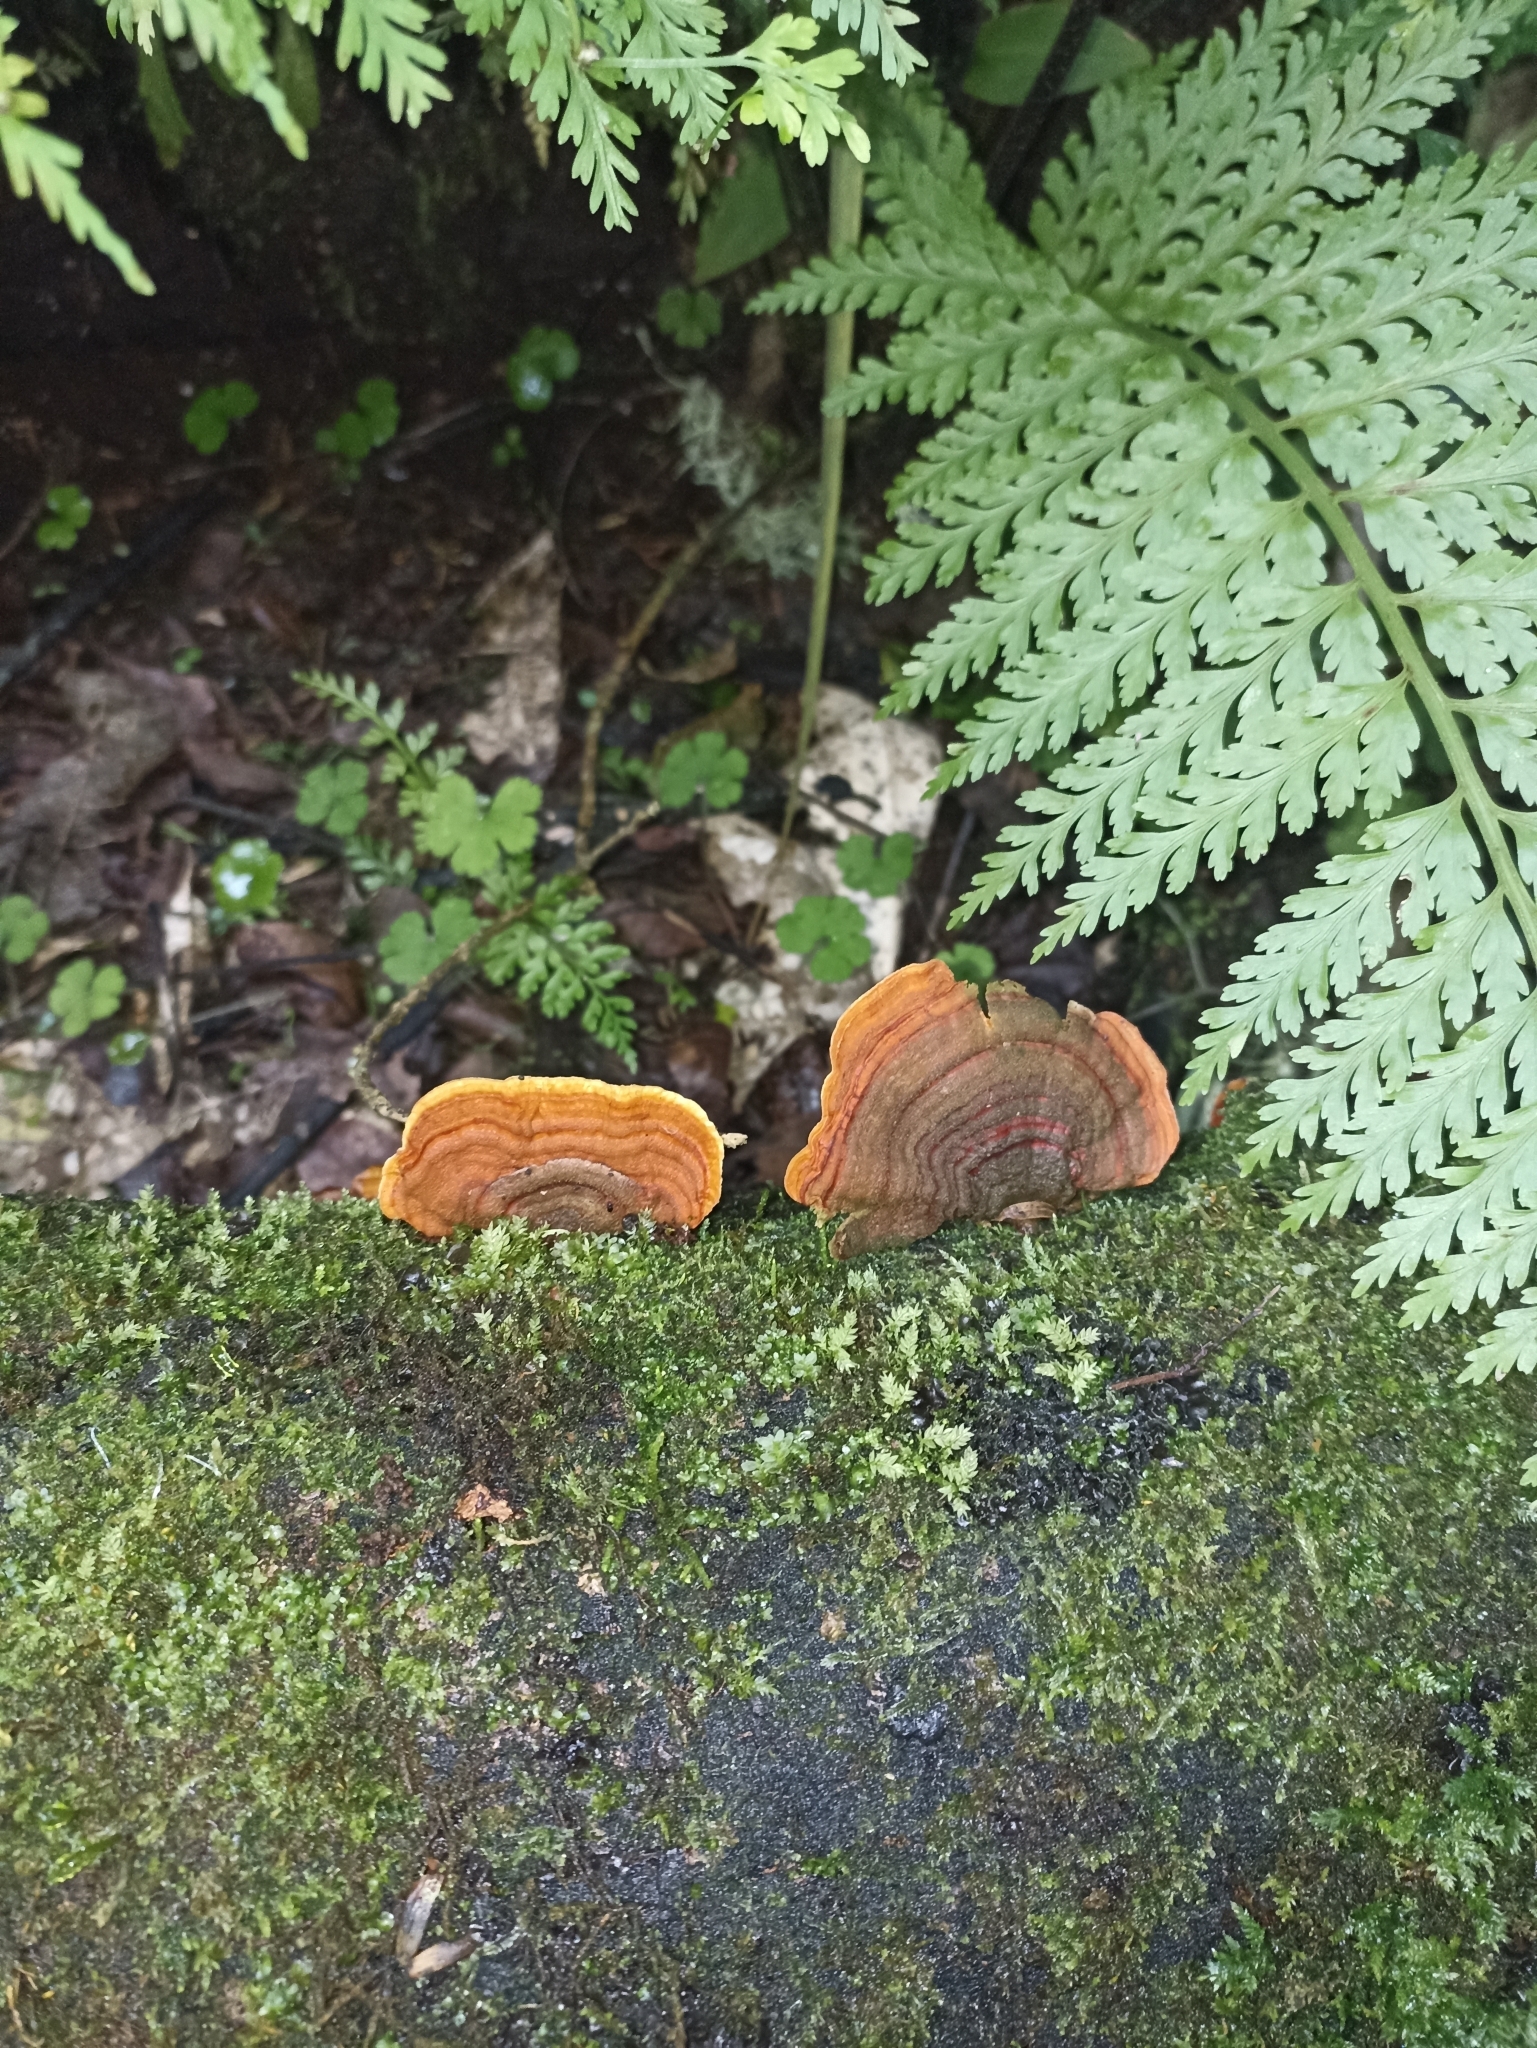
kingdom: Fungi
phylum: Basidiomycota
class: Agaricomycetes
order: Russulales
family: Stereaceae
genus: Stereum
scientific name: Stereum versicolor
